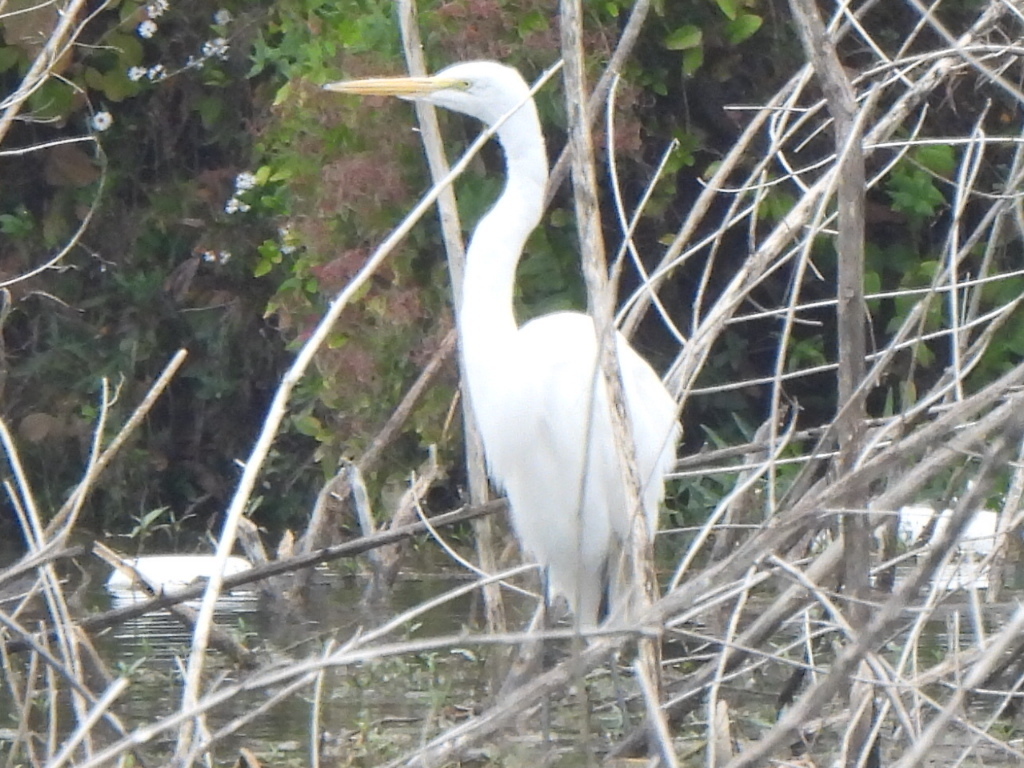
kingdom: Animalia
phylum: Chordata
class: Aves
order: Pelecaniformes
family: Ardeidae
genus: Ardea
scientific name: Ardea alba
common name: Great egret
